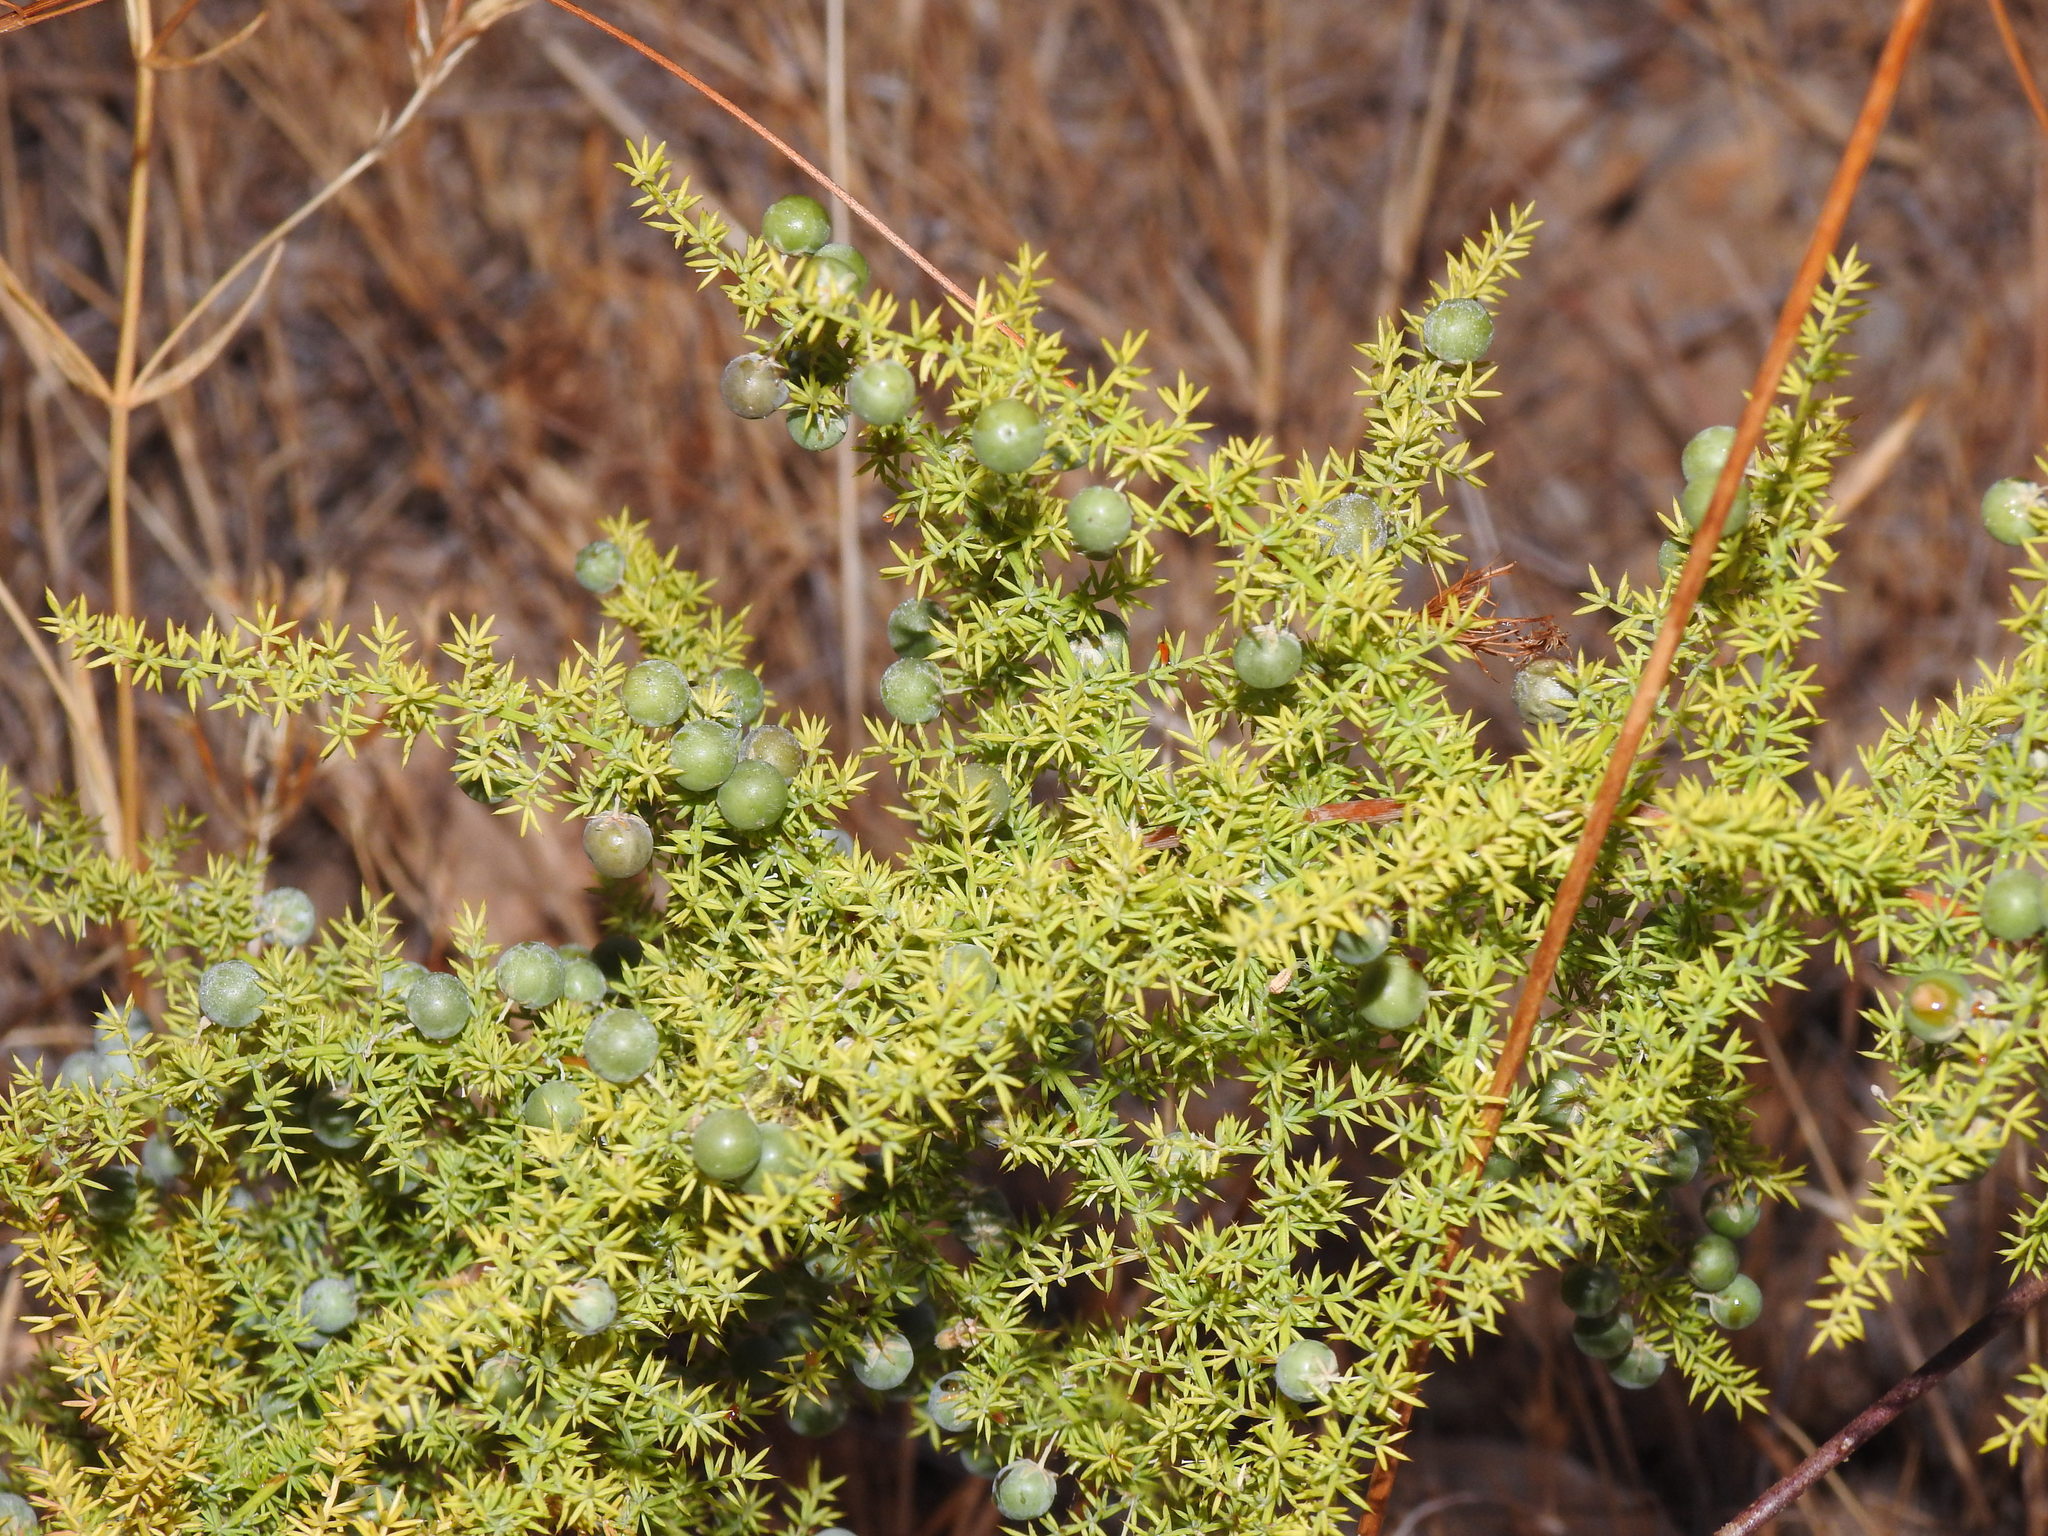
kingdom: Plantae
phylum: Tracheophyta
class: Liliopsida
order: Asparagales
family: Asparagaceae
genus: Asparagus
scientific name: Asparagus acutifolius
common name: Wild asparagus
